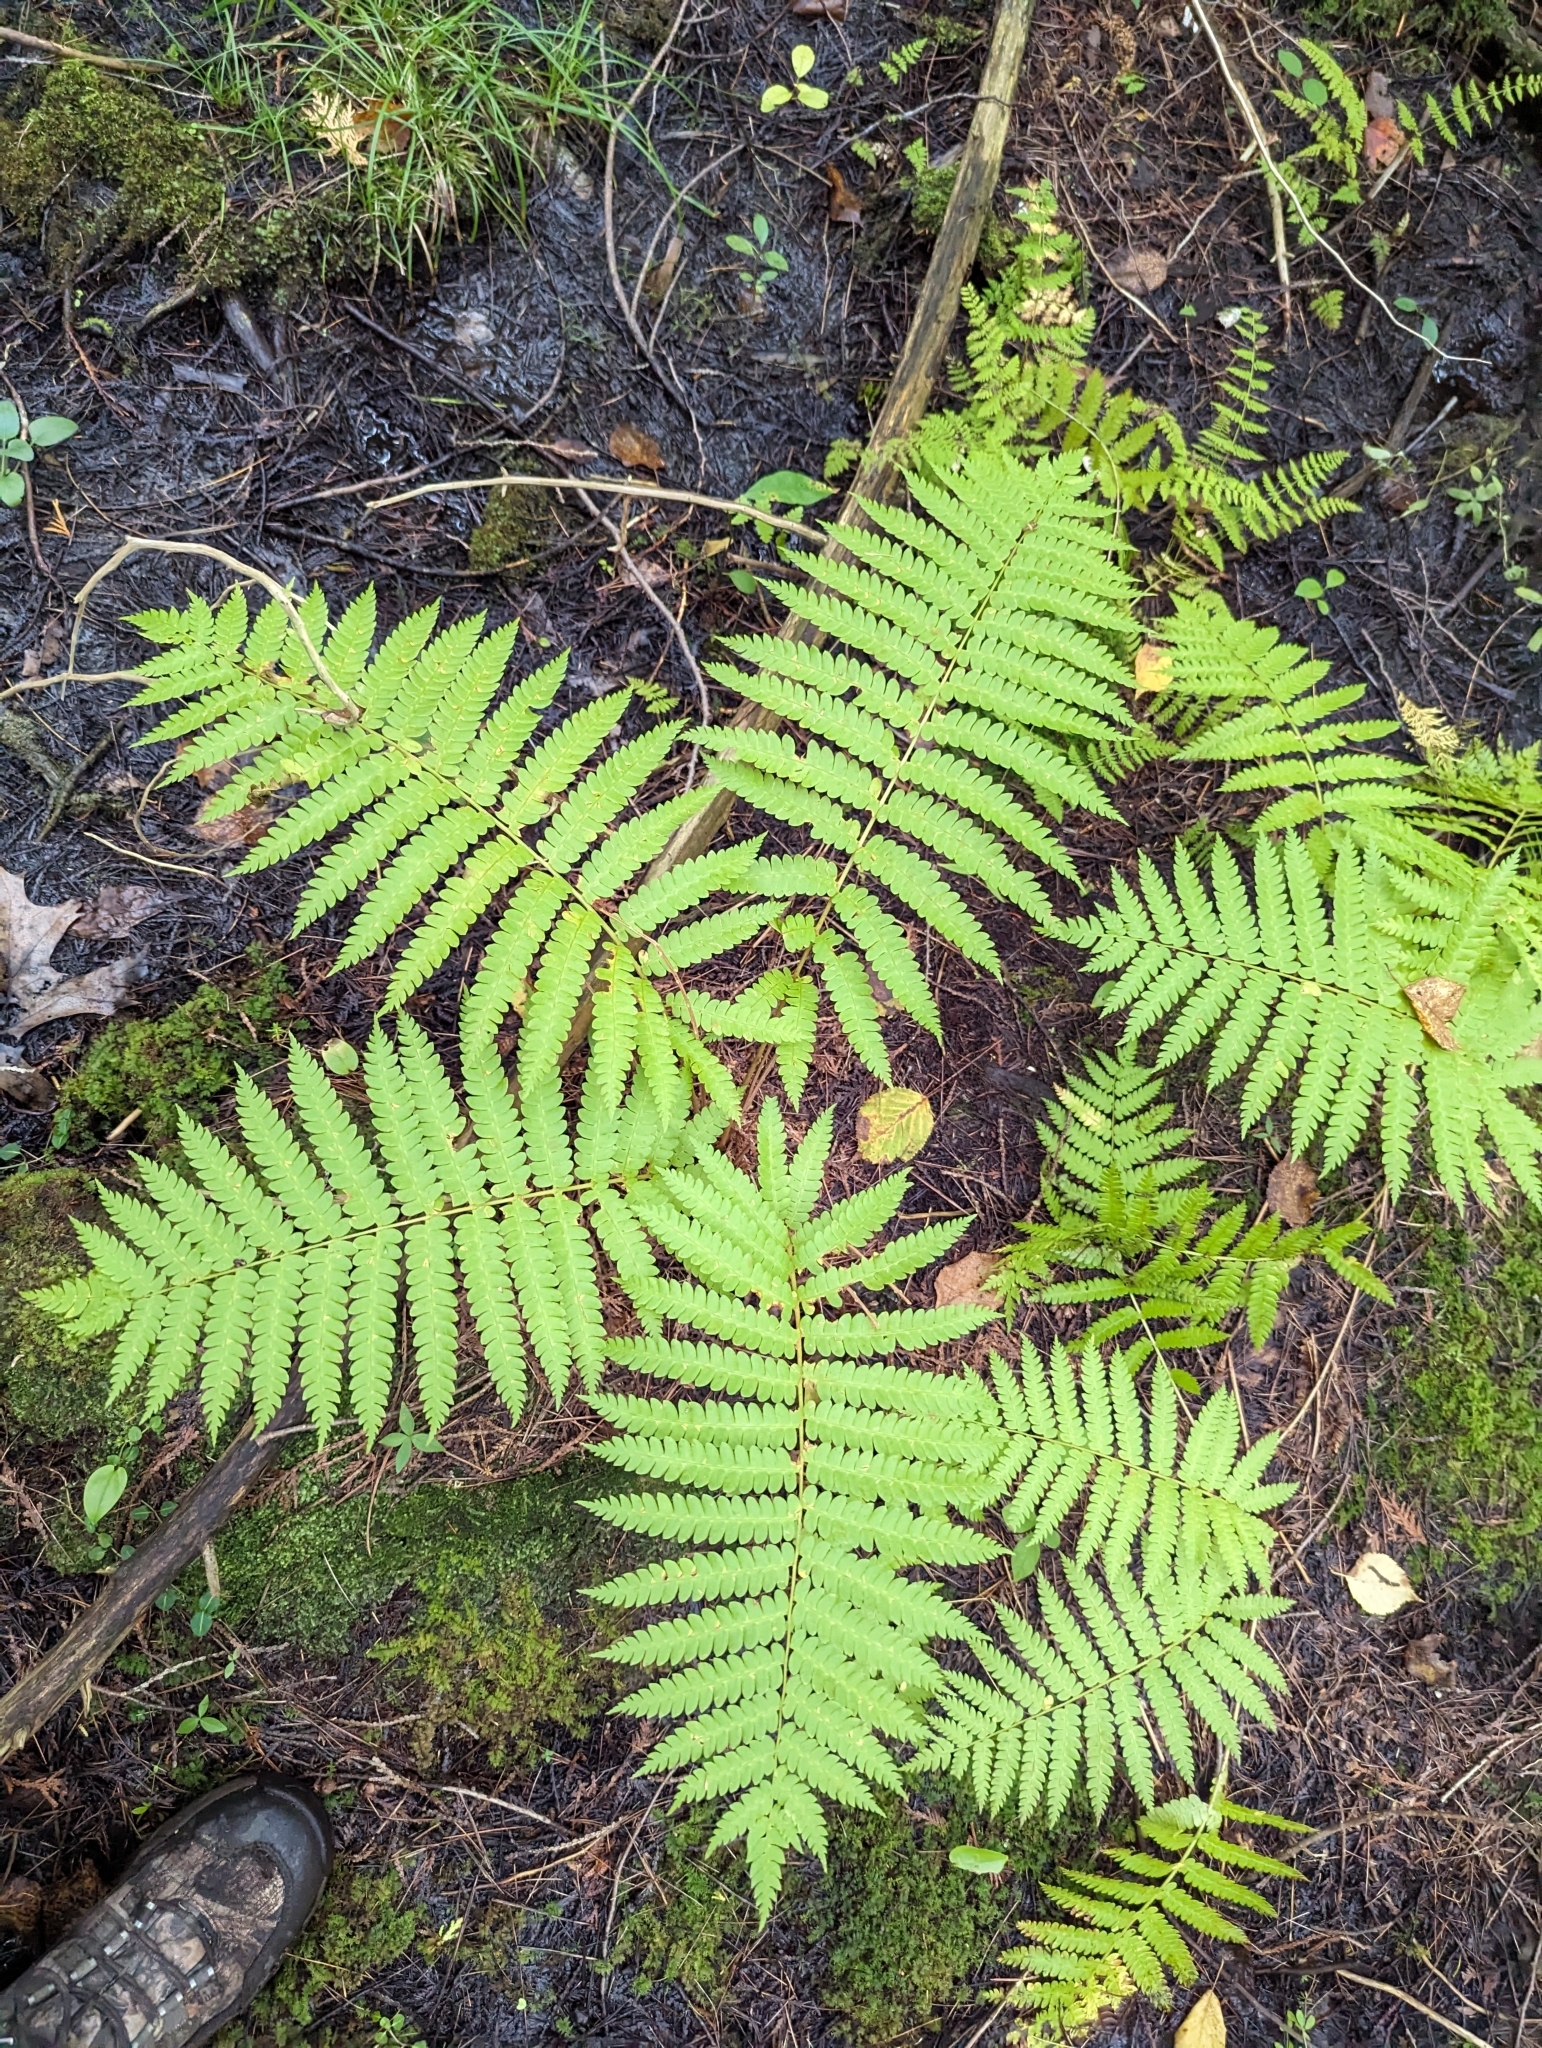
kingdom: Plantae
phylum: Tracheophyta
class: Polypodiopsida
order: Osmundales
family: Osmundaceae
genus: Osmundastrum
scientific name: Osmundastrum cinnamomeum
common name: Cinnamon fern
